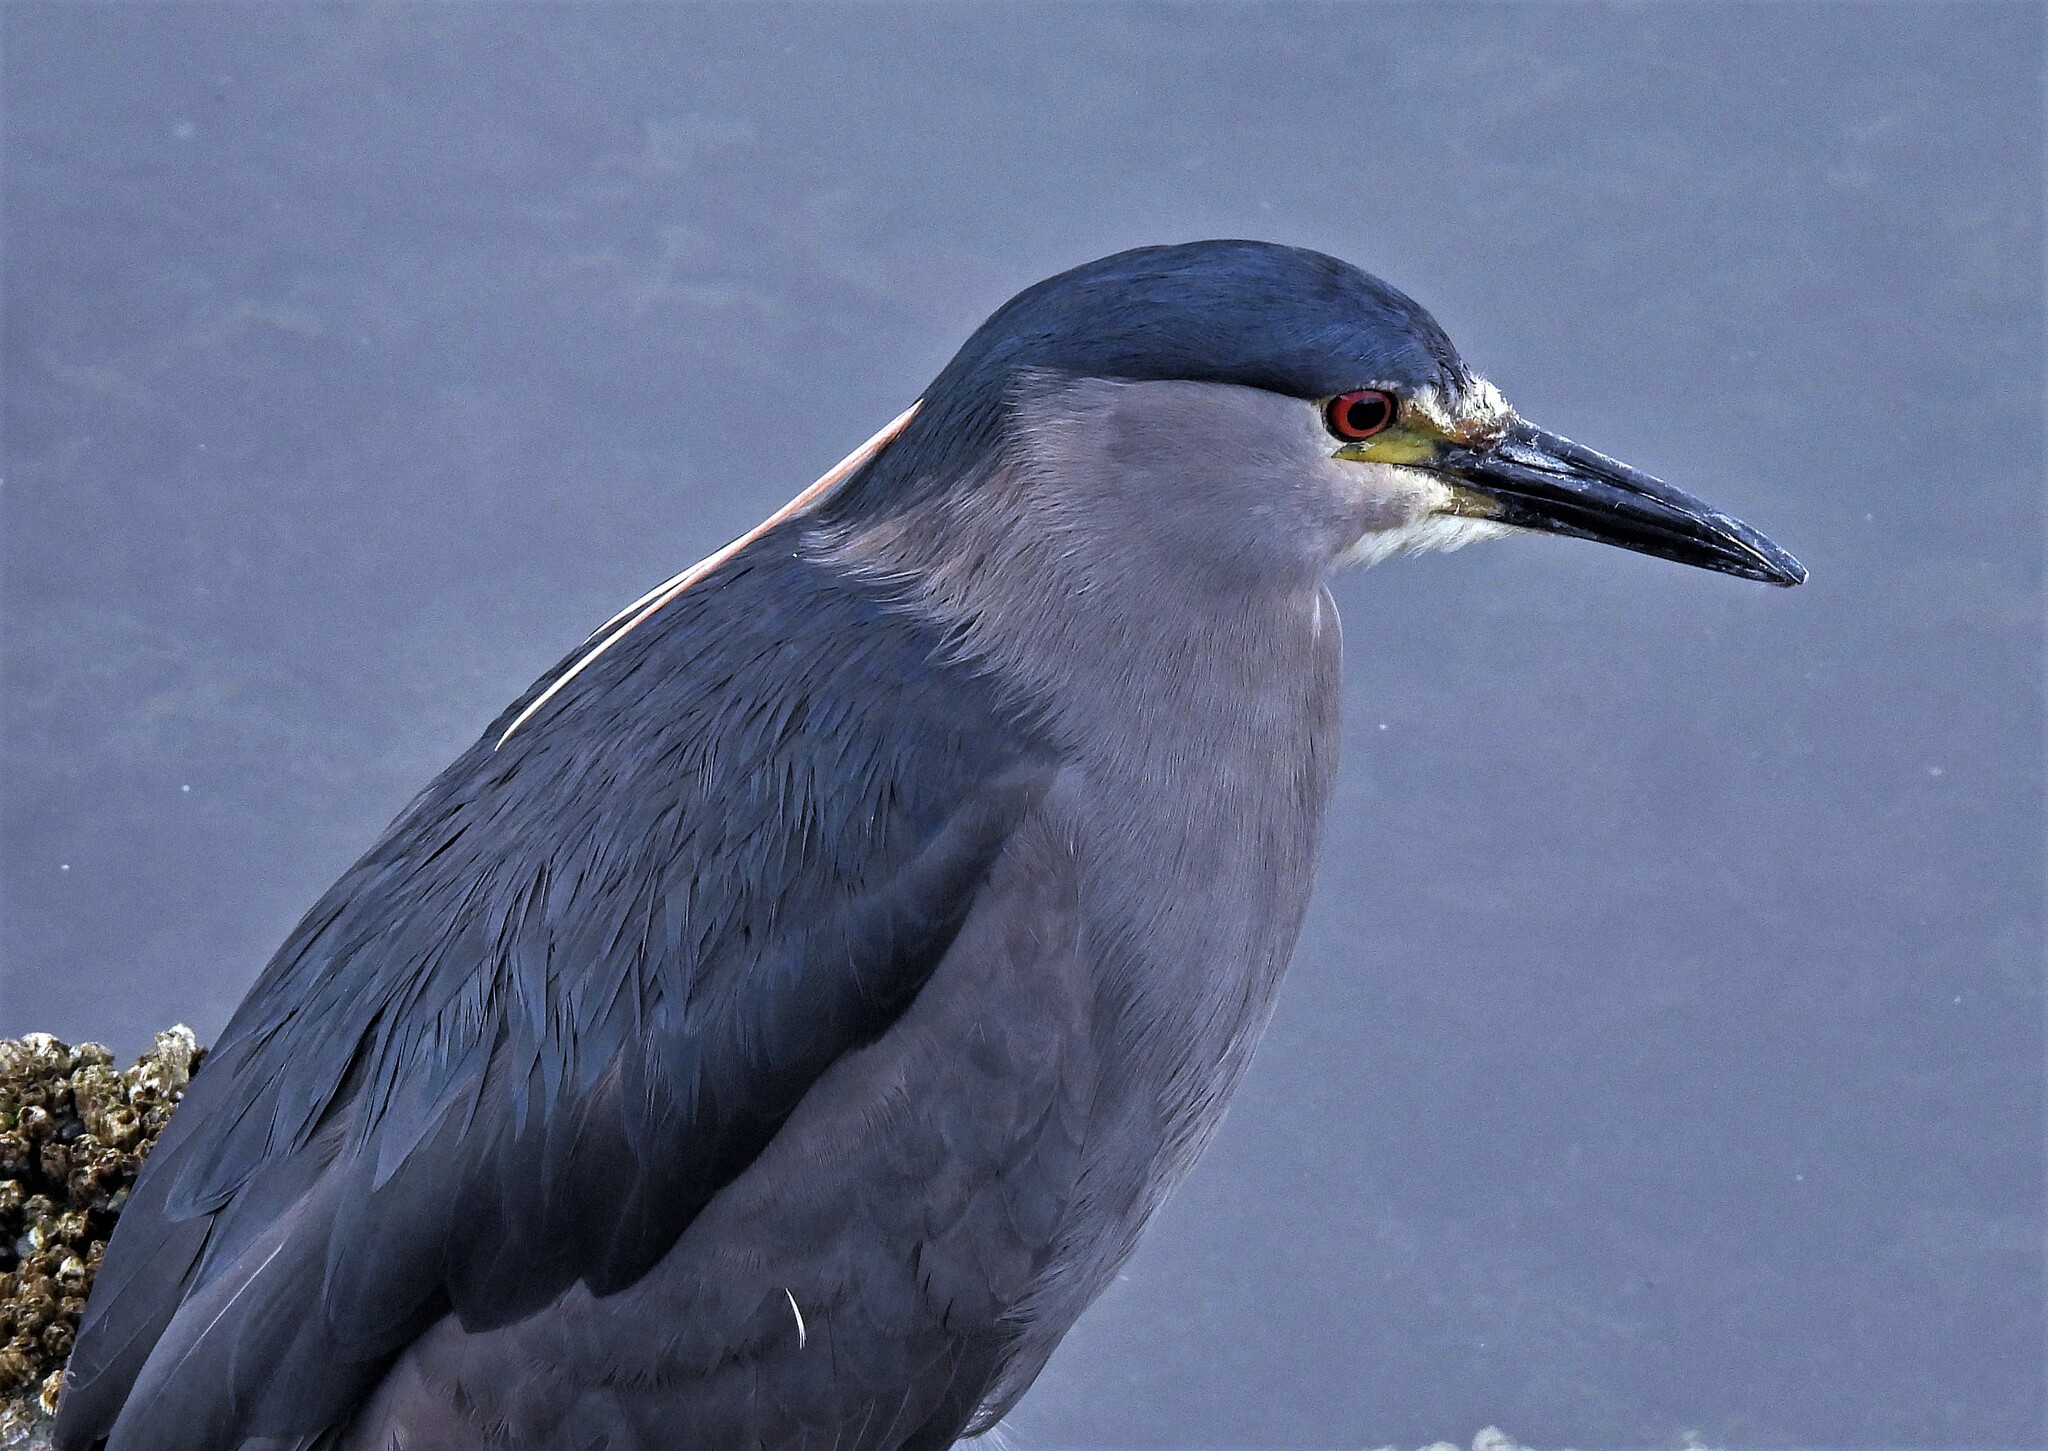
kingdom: Animalia
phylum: Chordata
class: Aves
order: Pelecaniformes
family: Ardeidae
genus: Nycticorax
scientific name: Nycticorax nycticorax
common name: Black-crowned night heron
